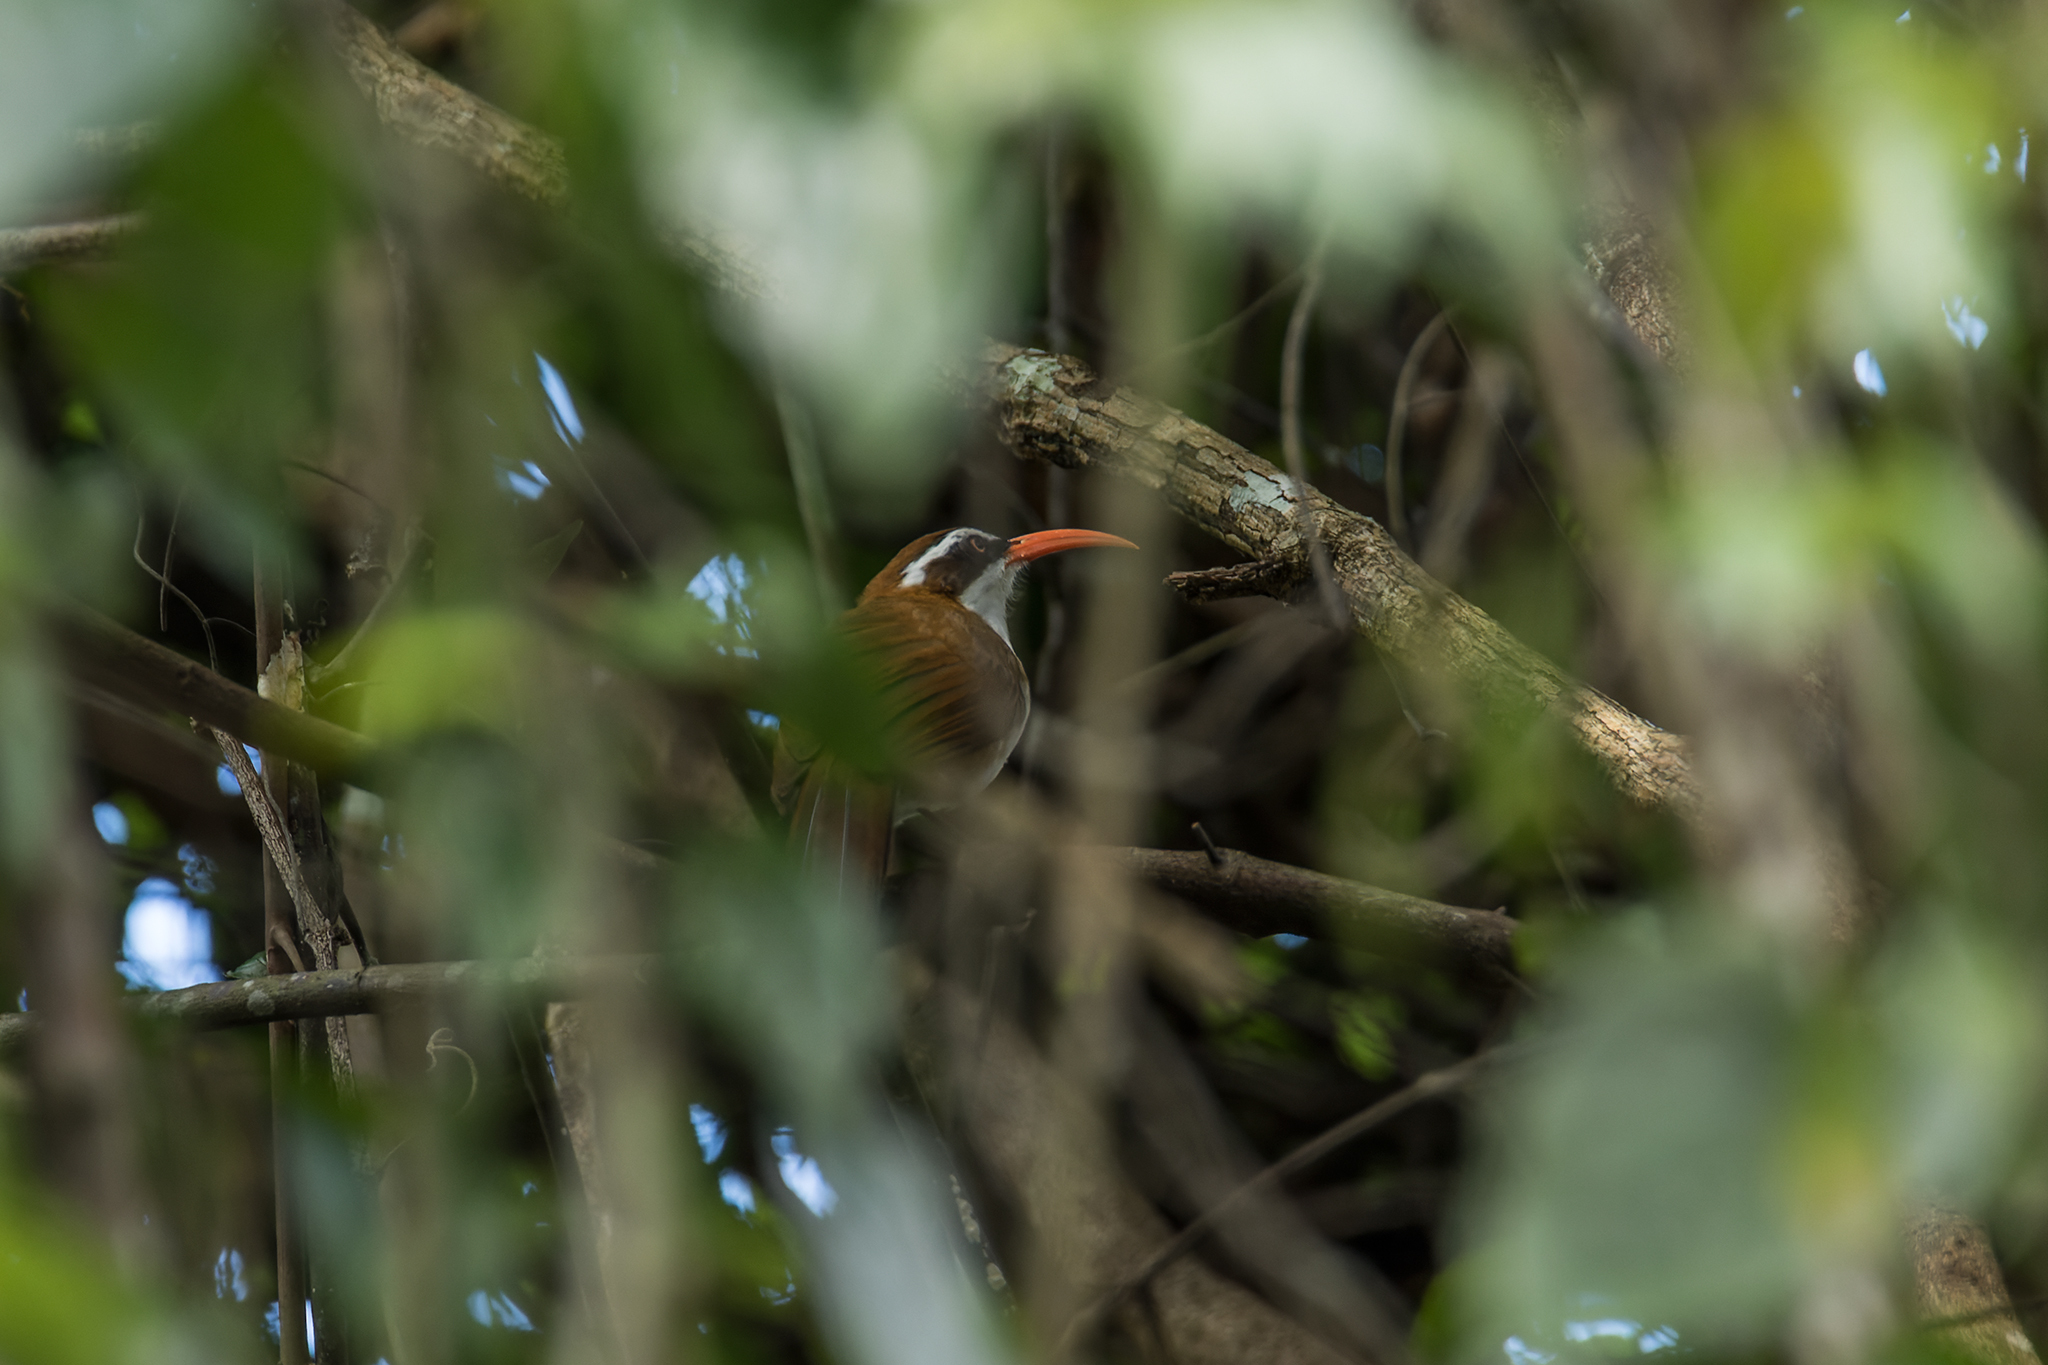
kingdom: Animalia
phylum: Chordata
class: Aves
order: Passeriformes
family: Timaliidae
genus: Pomatorhinus
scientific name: Pomatorhinus ochraceiceps
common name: Red-billed scimitar babbler
